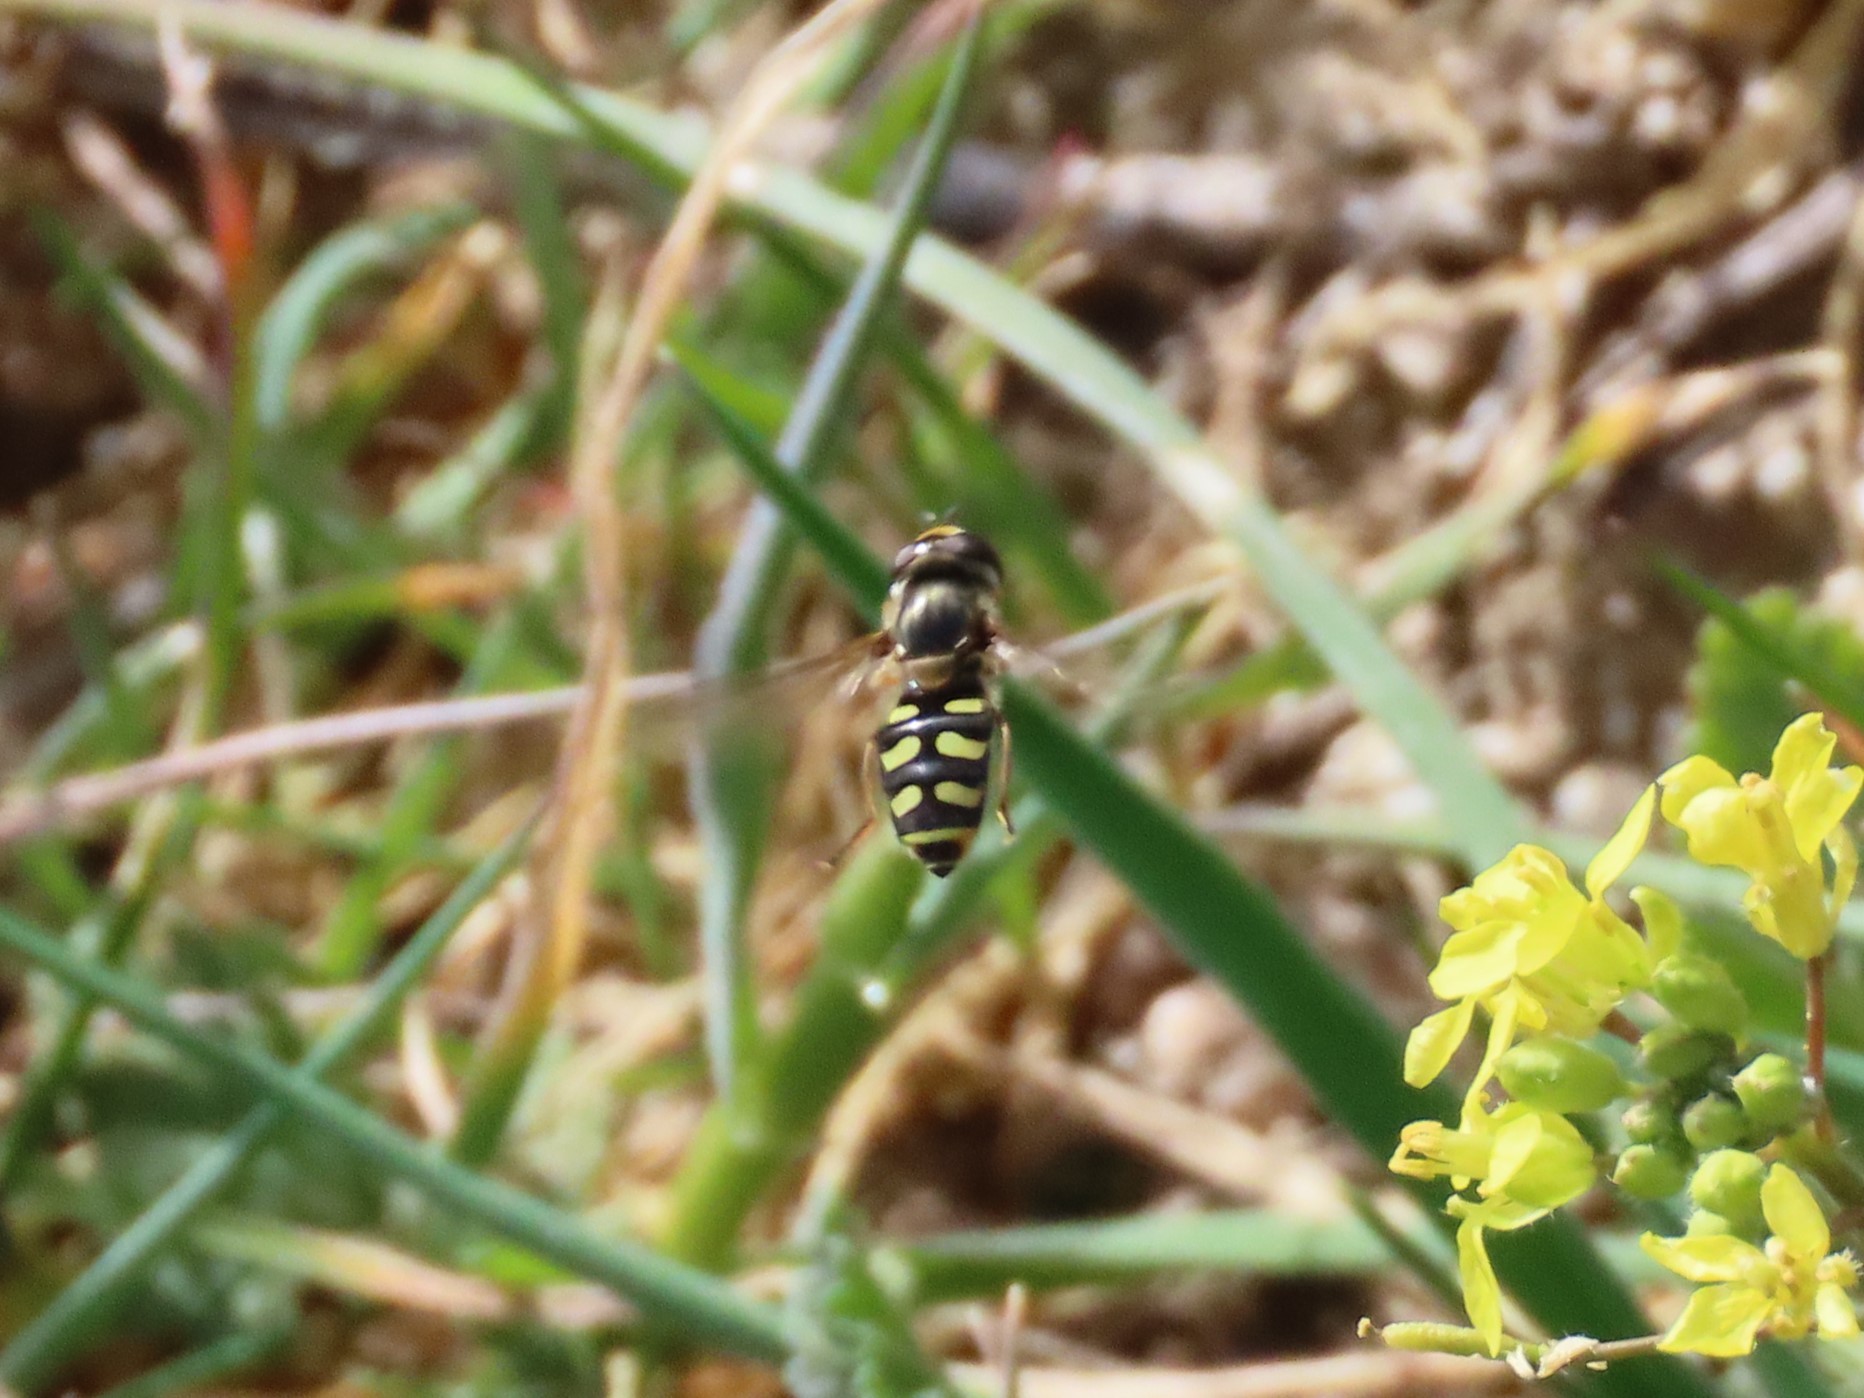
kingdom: Animalia
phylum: Arthropoda
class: Insecta
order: Diptera
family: Syrphidae
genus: Eupeodes
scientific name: Eupeodes corollae
